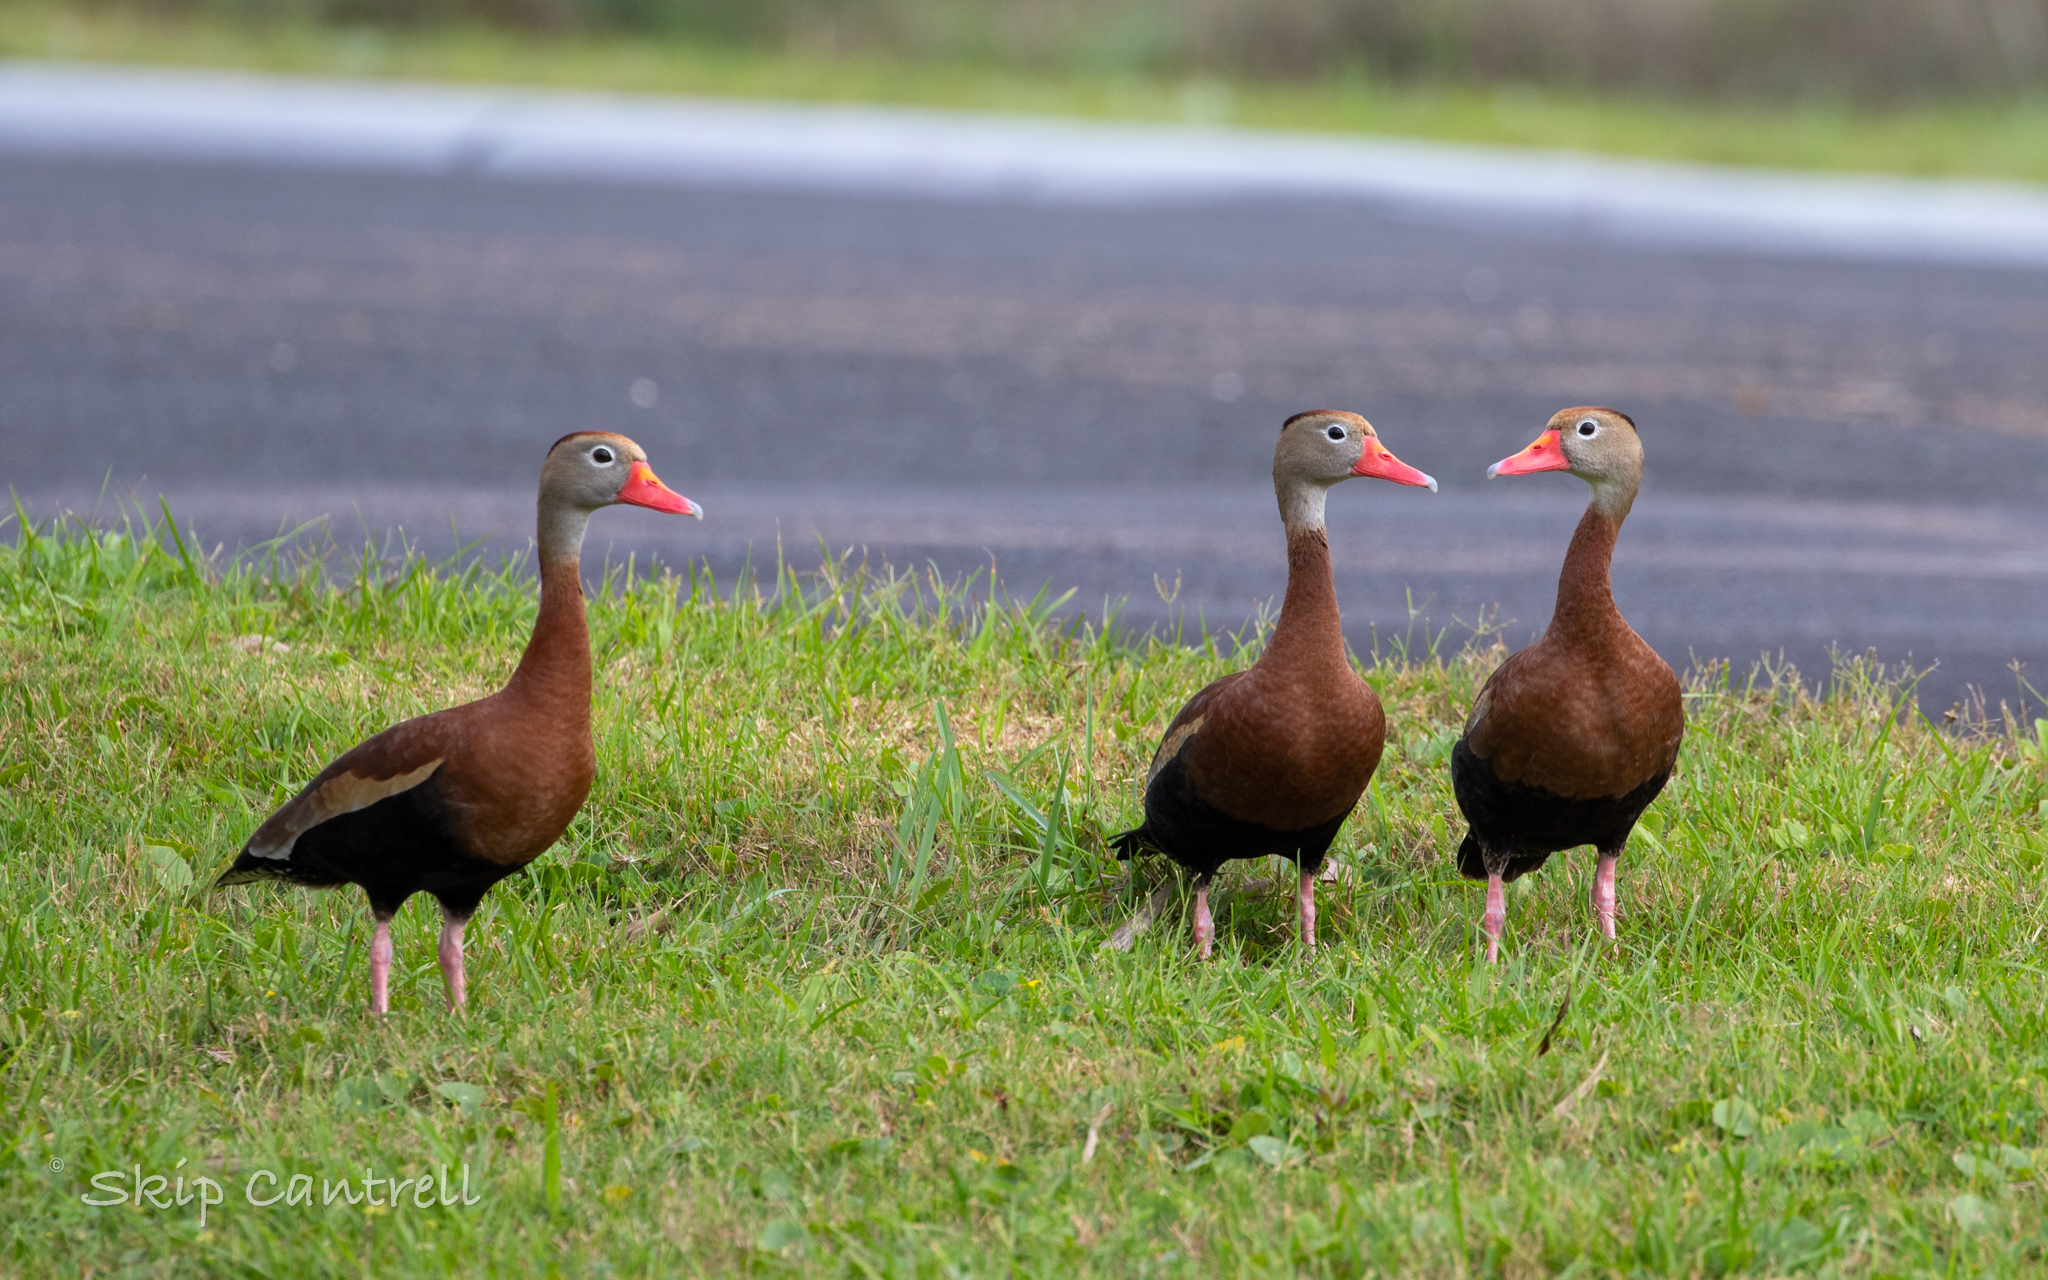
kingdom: Animalia
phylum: Chordata
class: Aves
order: Anseriformes
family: Anatidae
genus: Dendrocygna
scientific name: Dendrocygna autumnalis
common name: Black-bellied whistling duck
